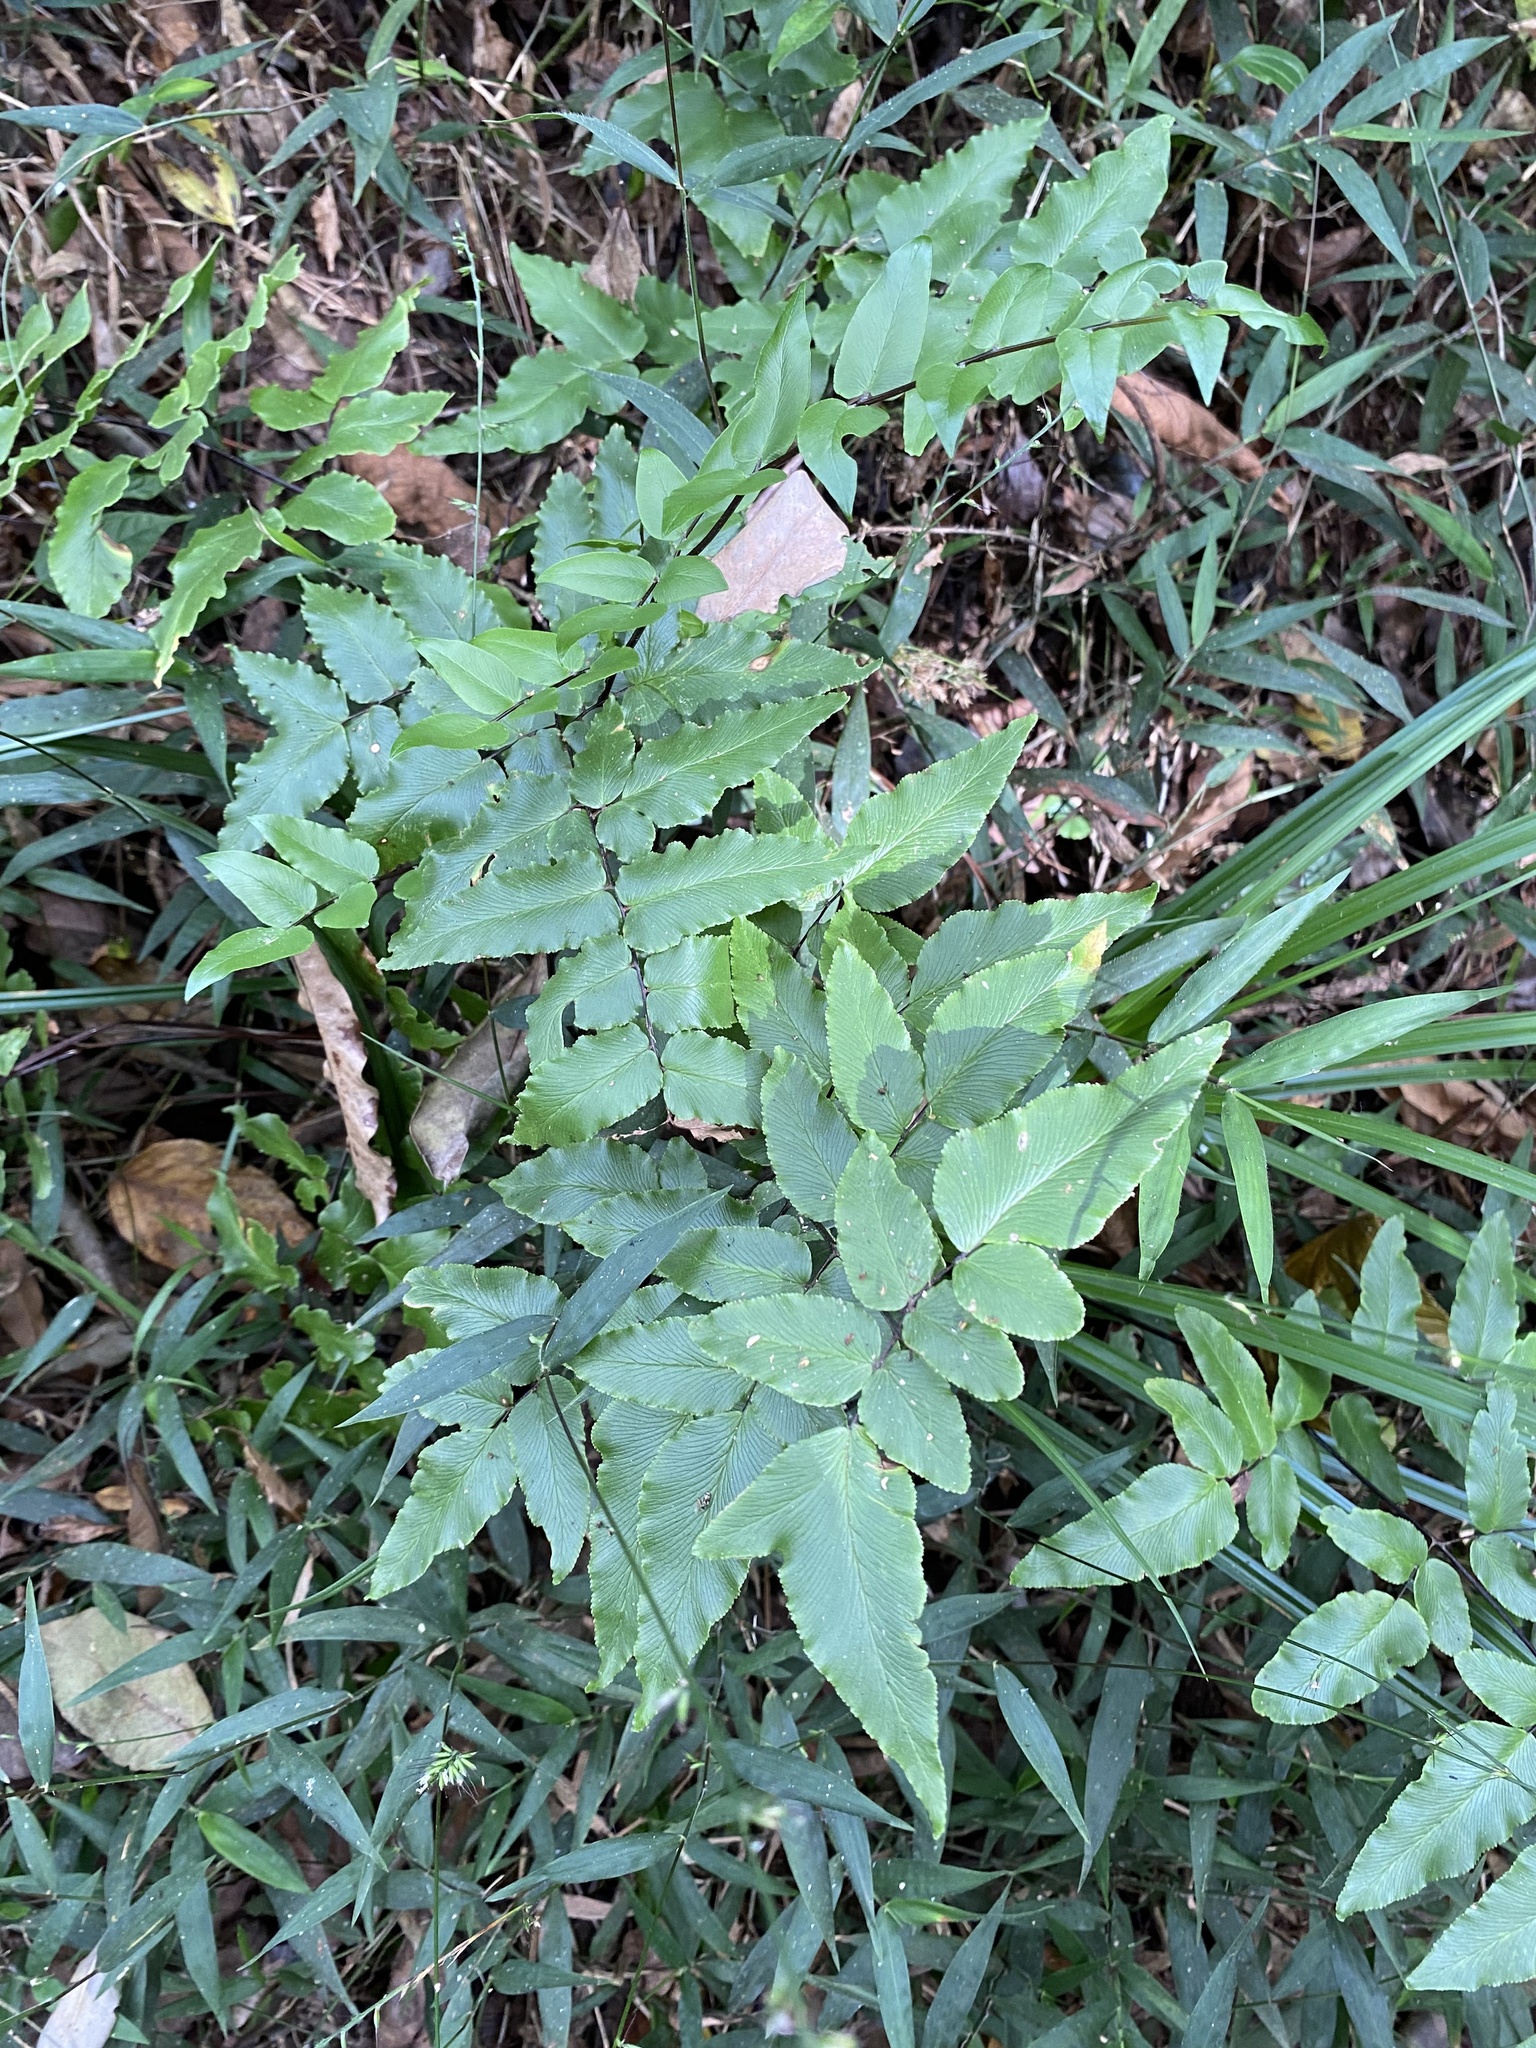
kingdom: Plantae
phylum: Tracheophyta
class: Polypodiopsida
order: Polypodiales
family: Pteridaceae
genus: Cheilanthes
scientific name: Cheilanthes viridis
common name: Green cliffbrake
